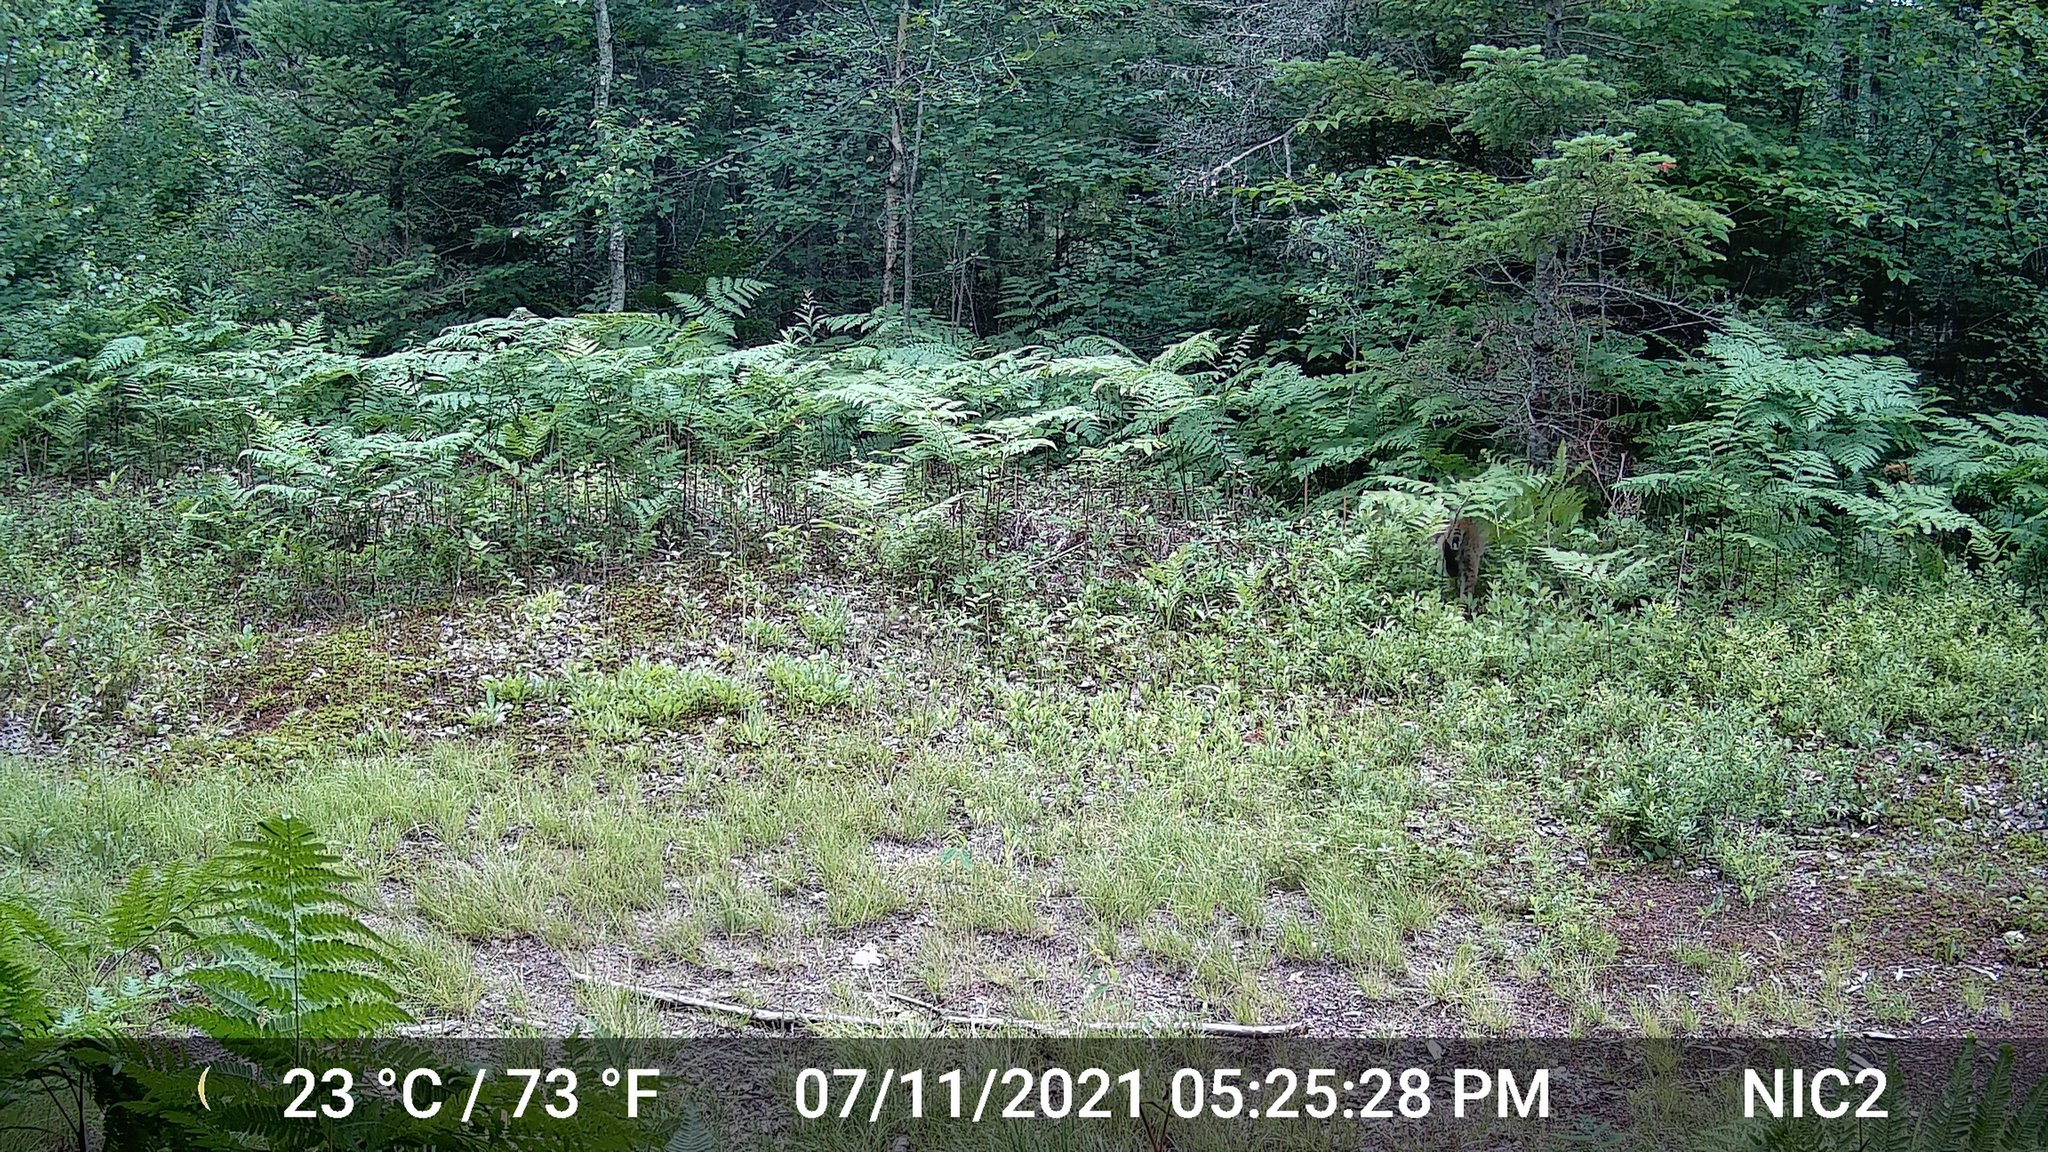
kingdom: Animalia
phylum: Chordata
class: Mammalia
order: Carnivora
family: Felidae
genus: Lynx
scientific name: Lynx rufus
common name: Bobcat
